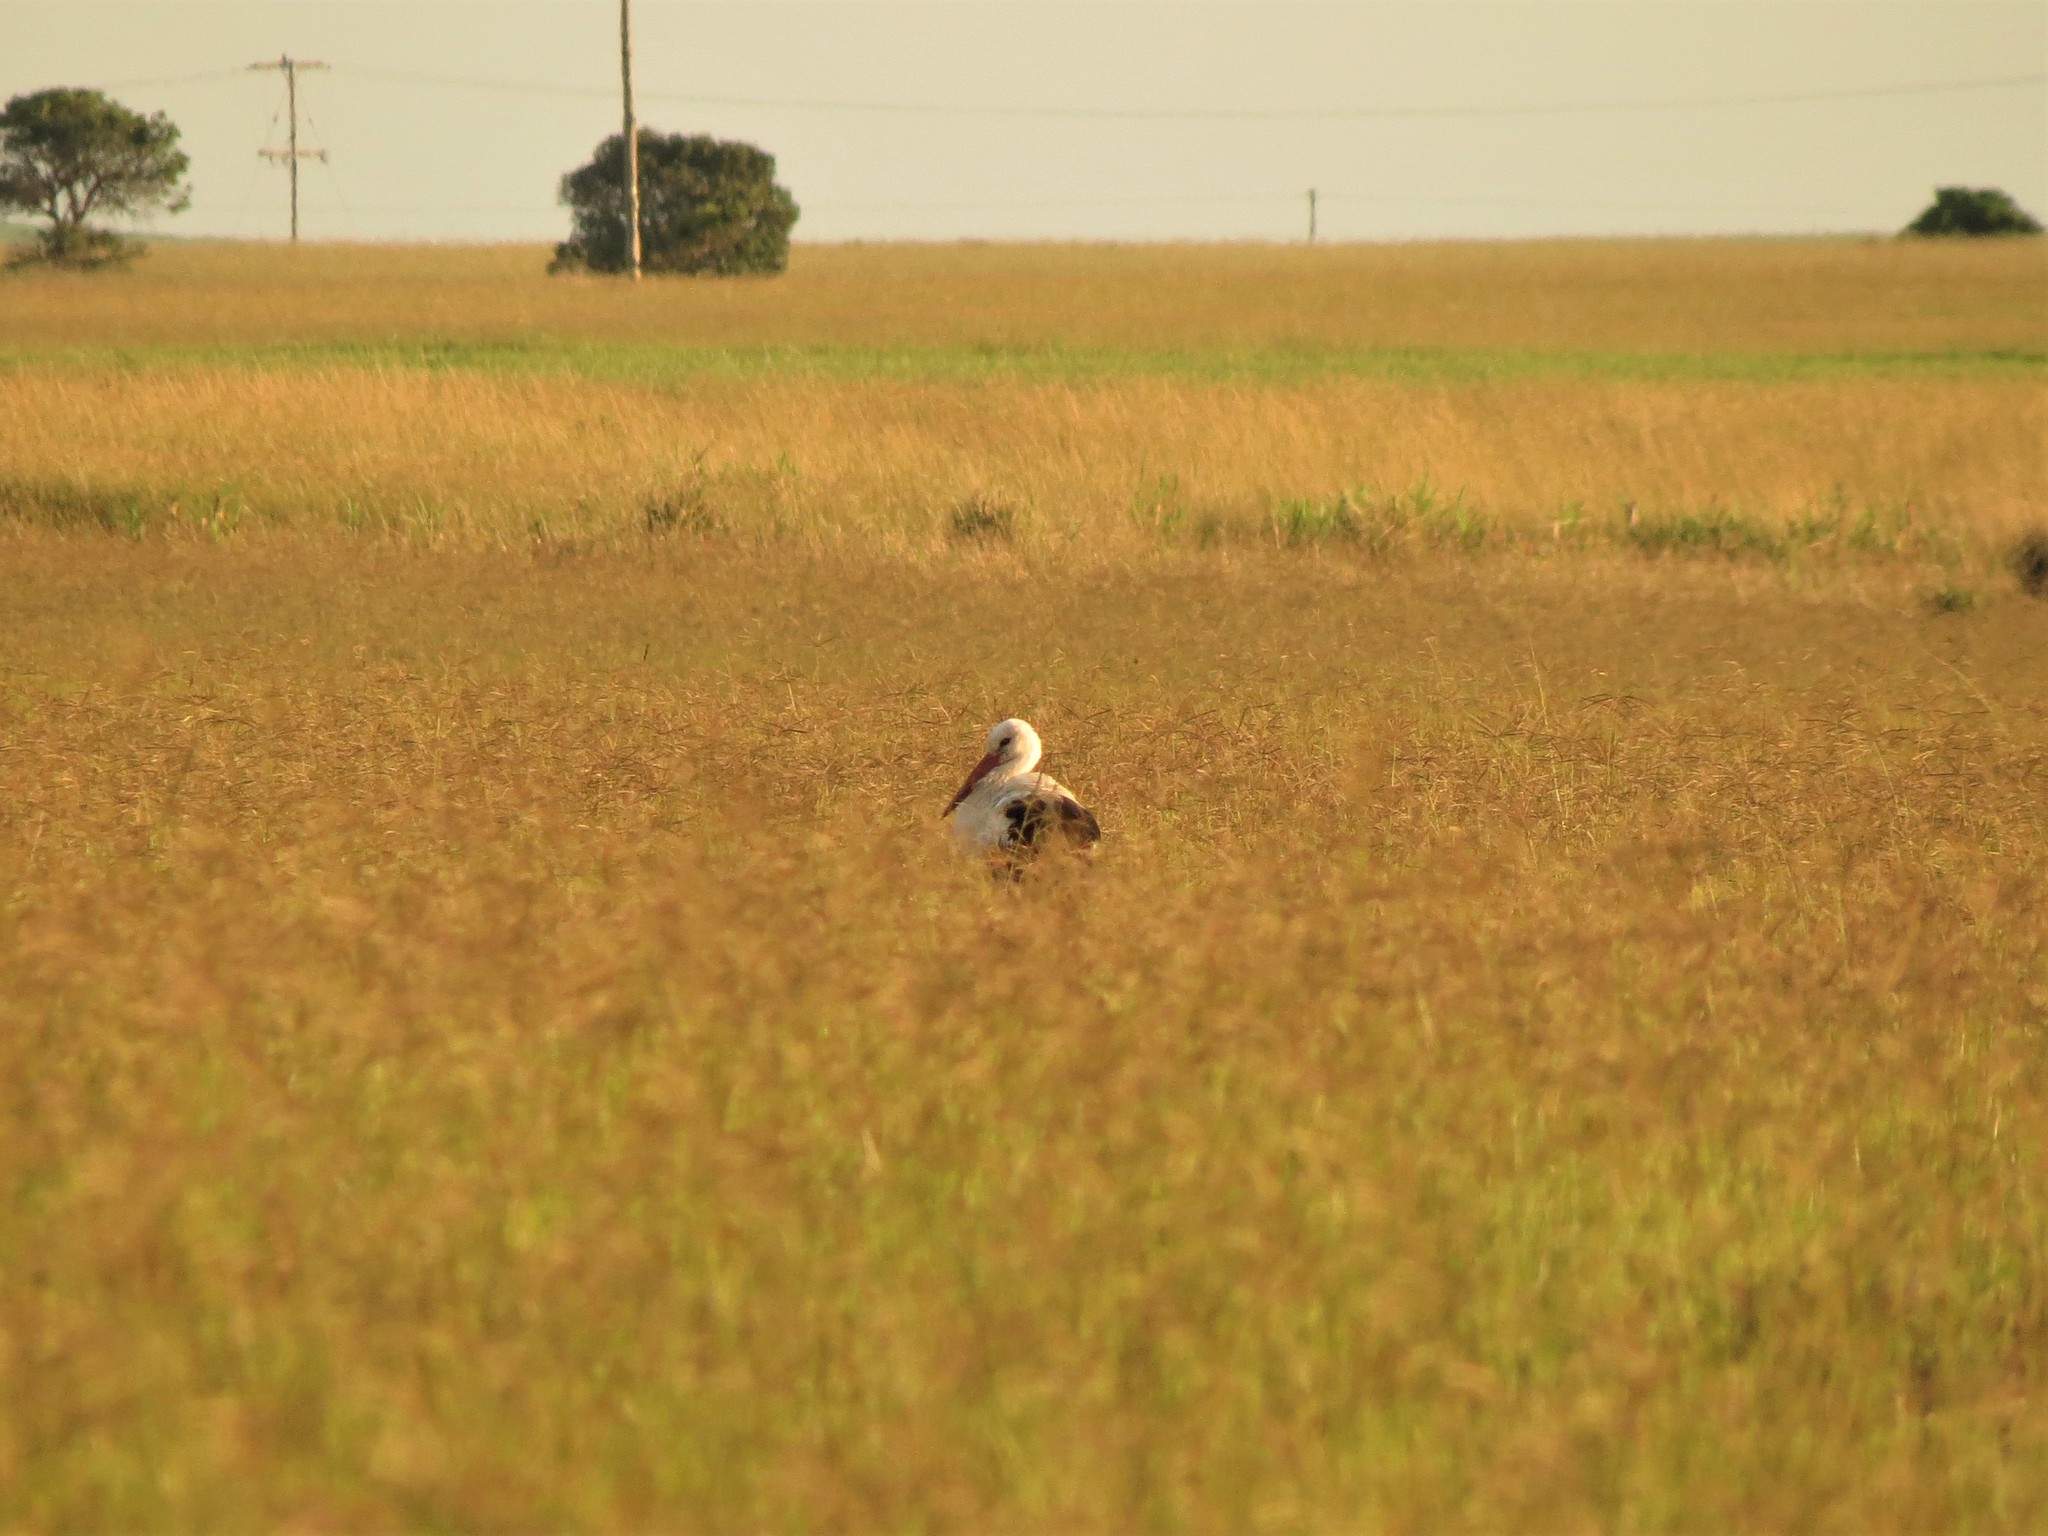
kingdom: Animalia
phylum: Chordata
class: Aves
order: Ciconiiformes
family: Ciconiidae
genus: Ciconia
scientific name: Ciconia ciconia
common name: White stork
